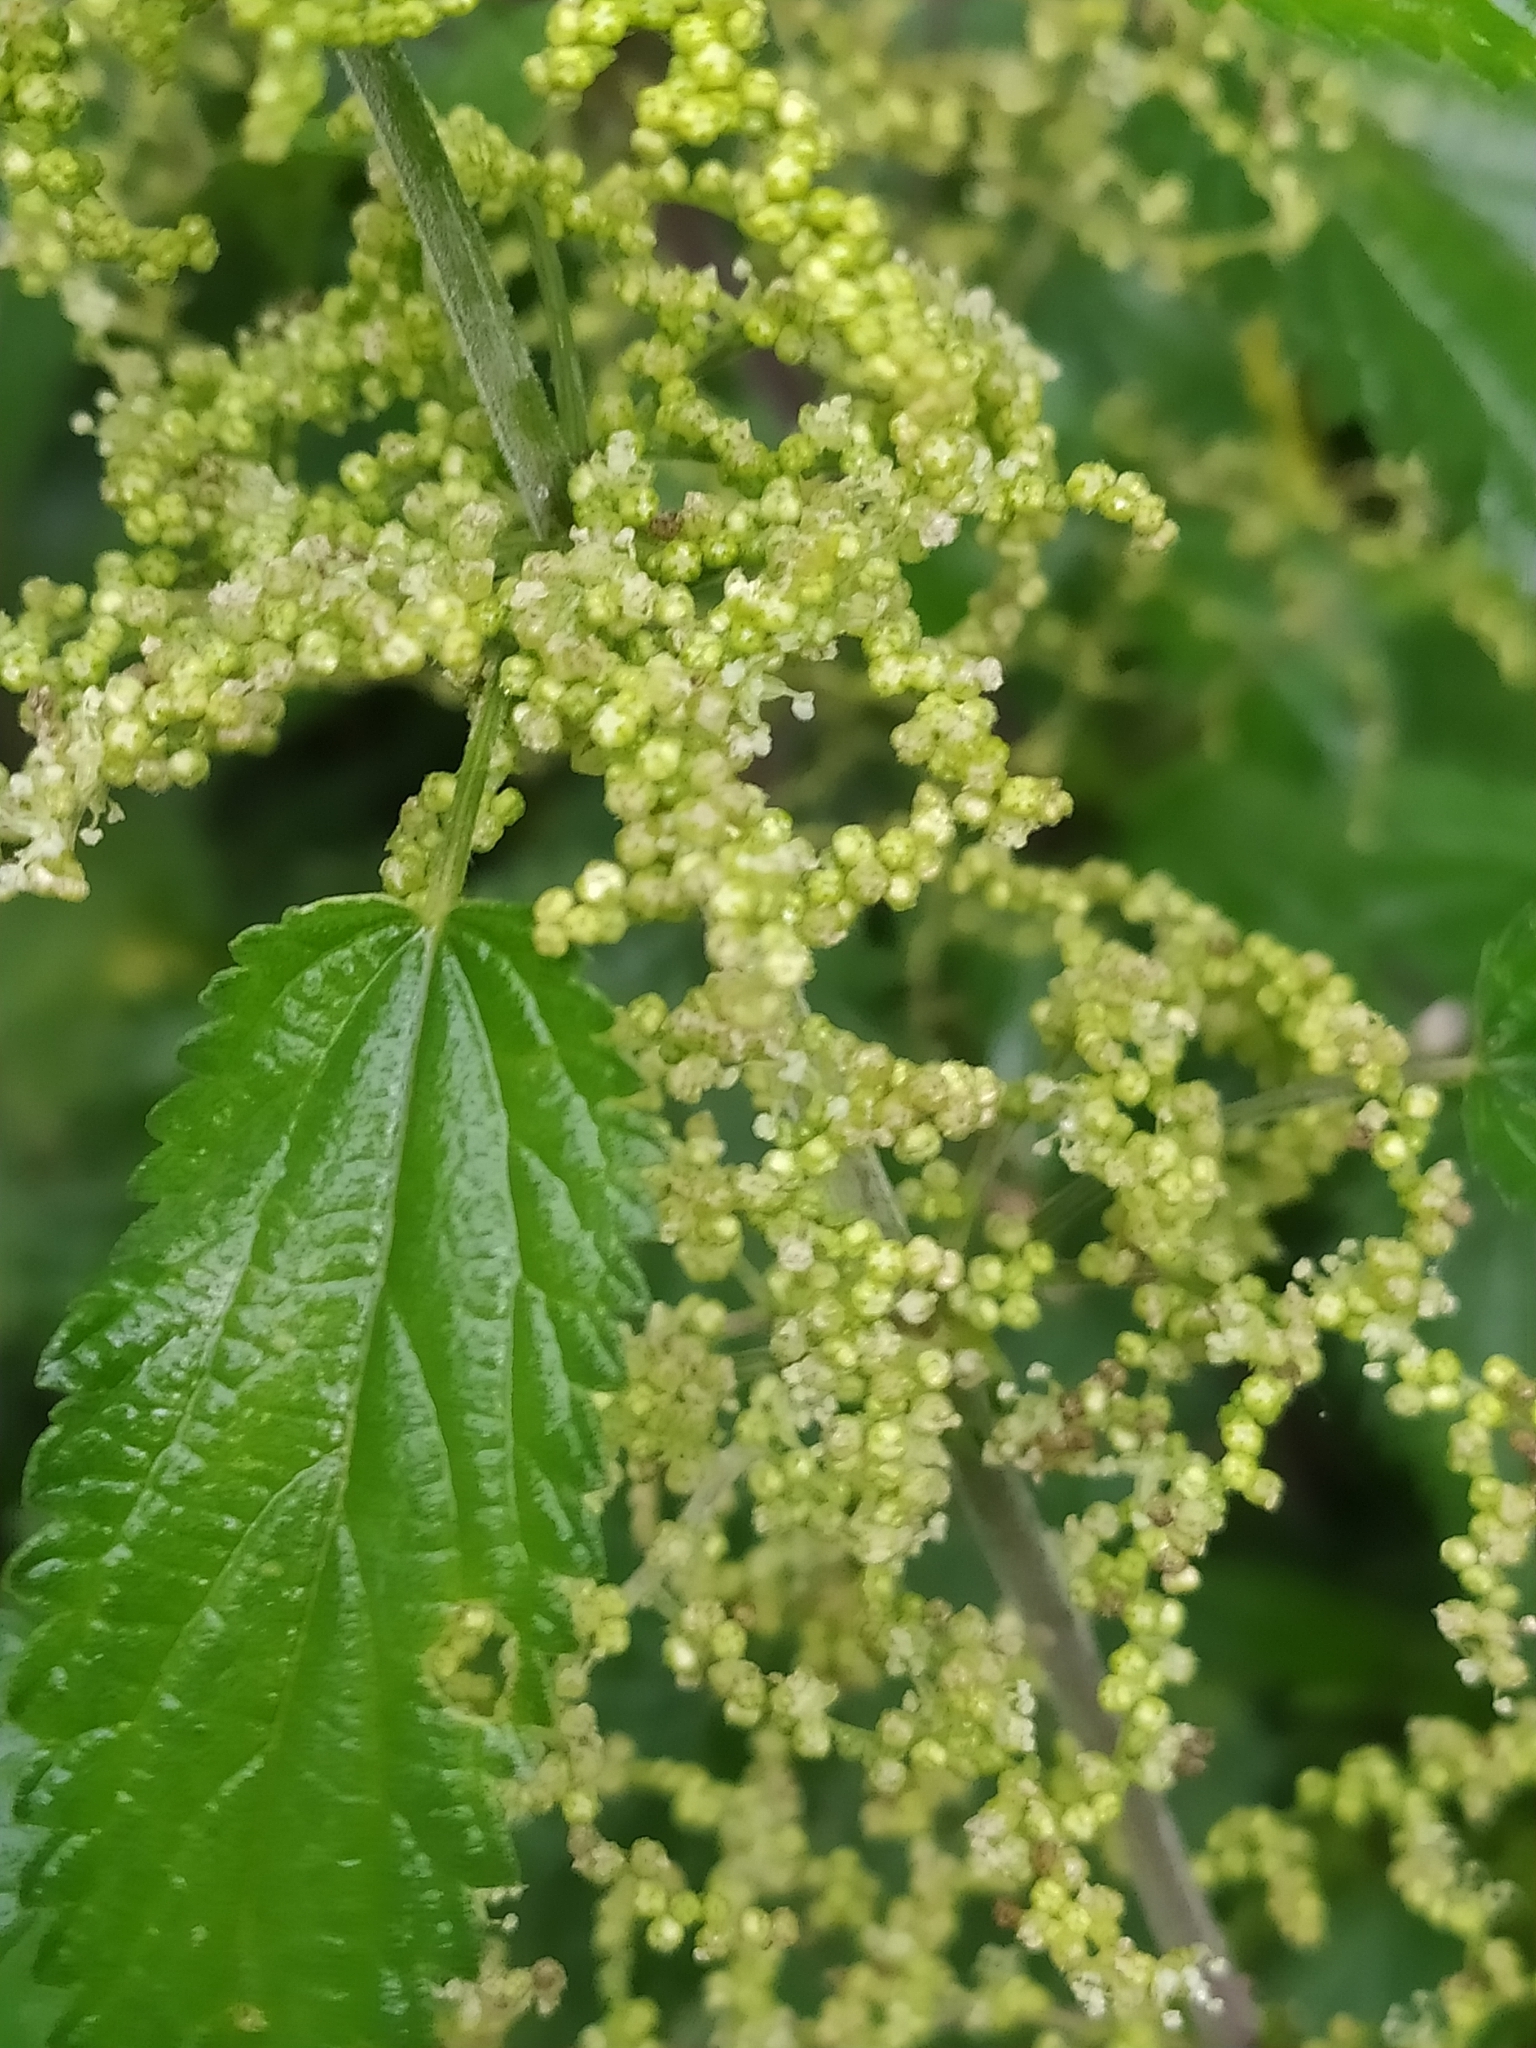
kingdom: Plantae
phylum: Tracheophyta
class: Magnoliopsida
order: Rosales
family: Urticaceae
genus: Urtica
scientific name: Urtica dioica
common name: Common nettle
